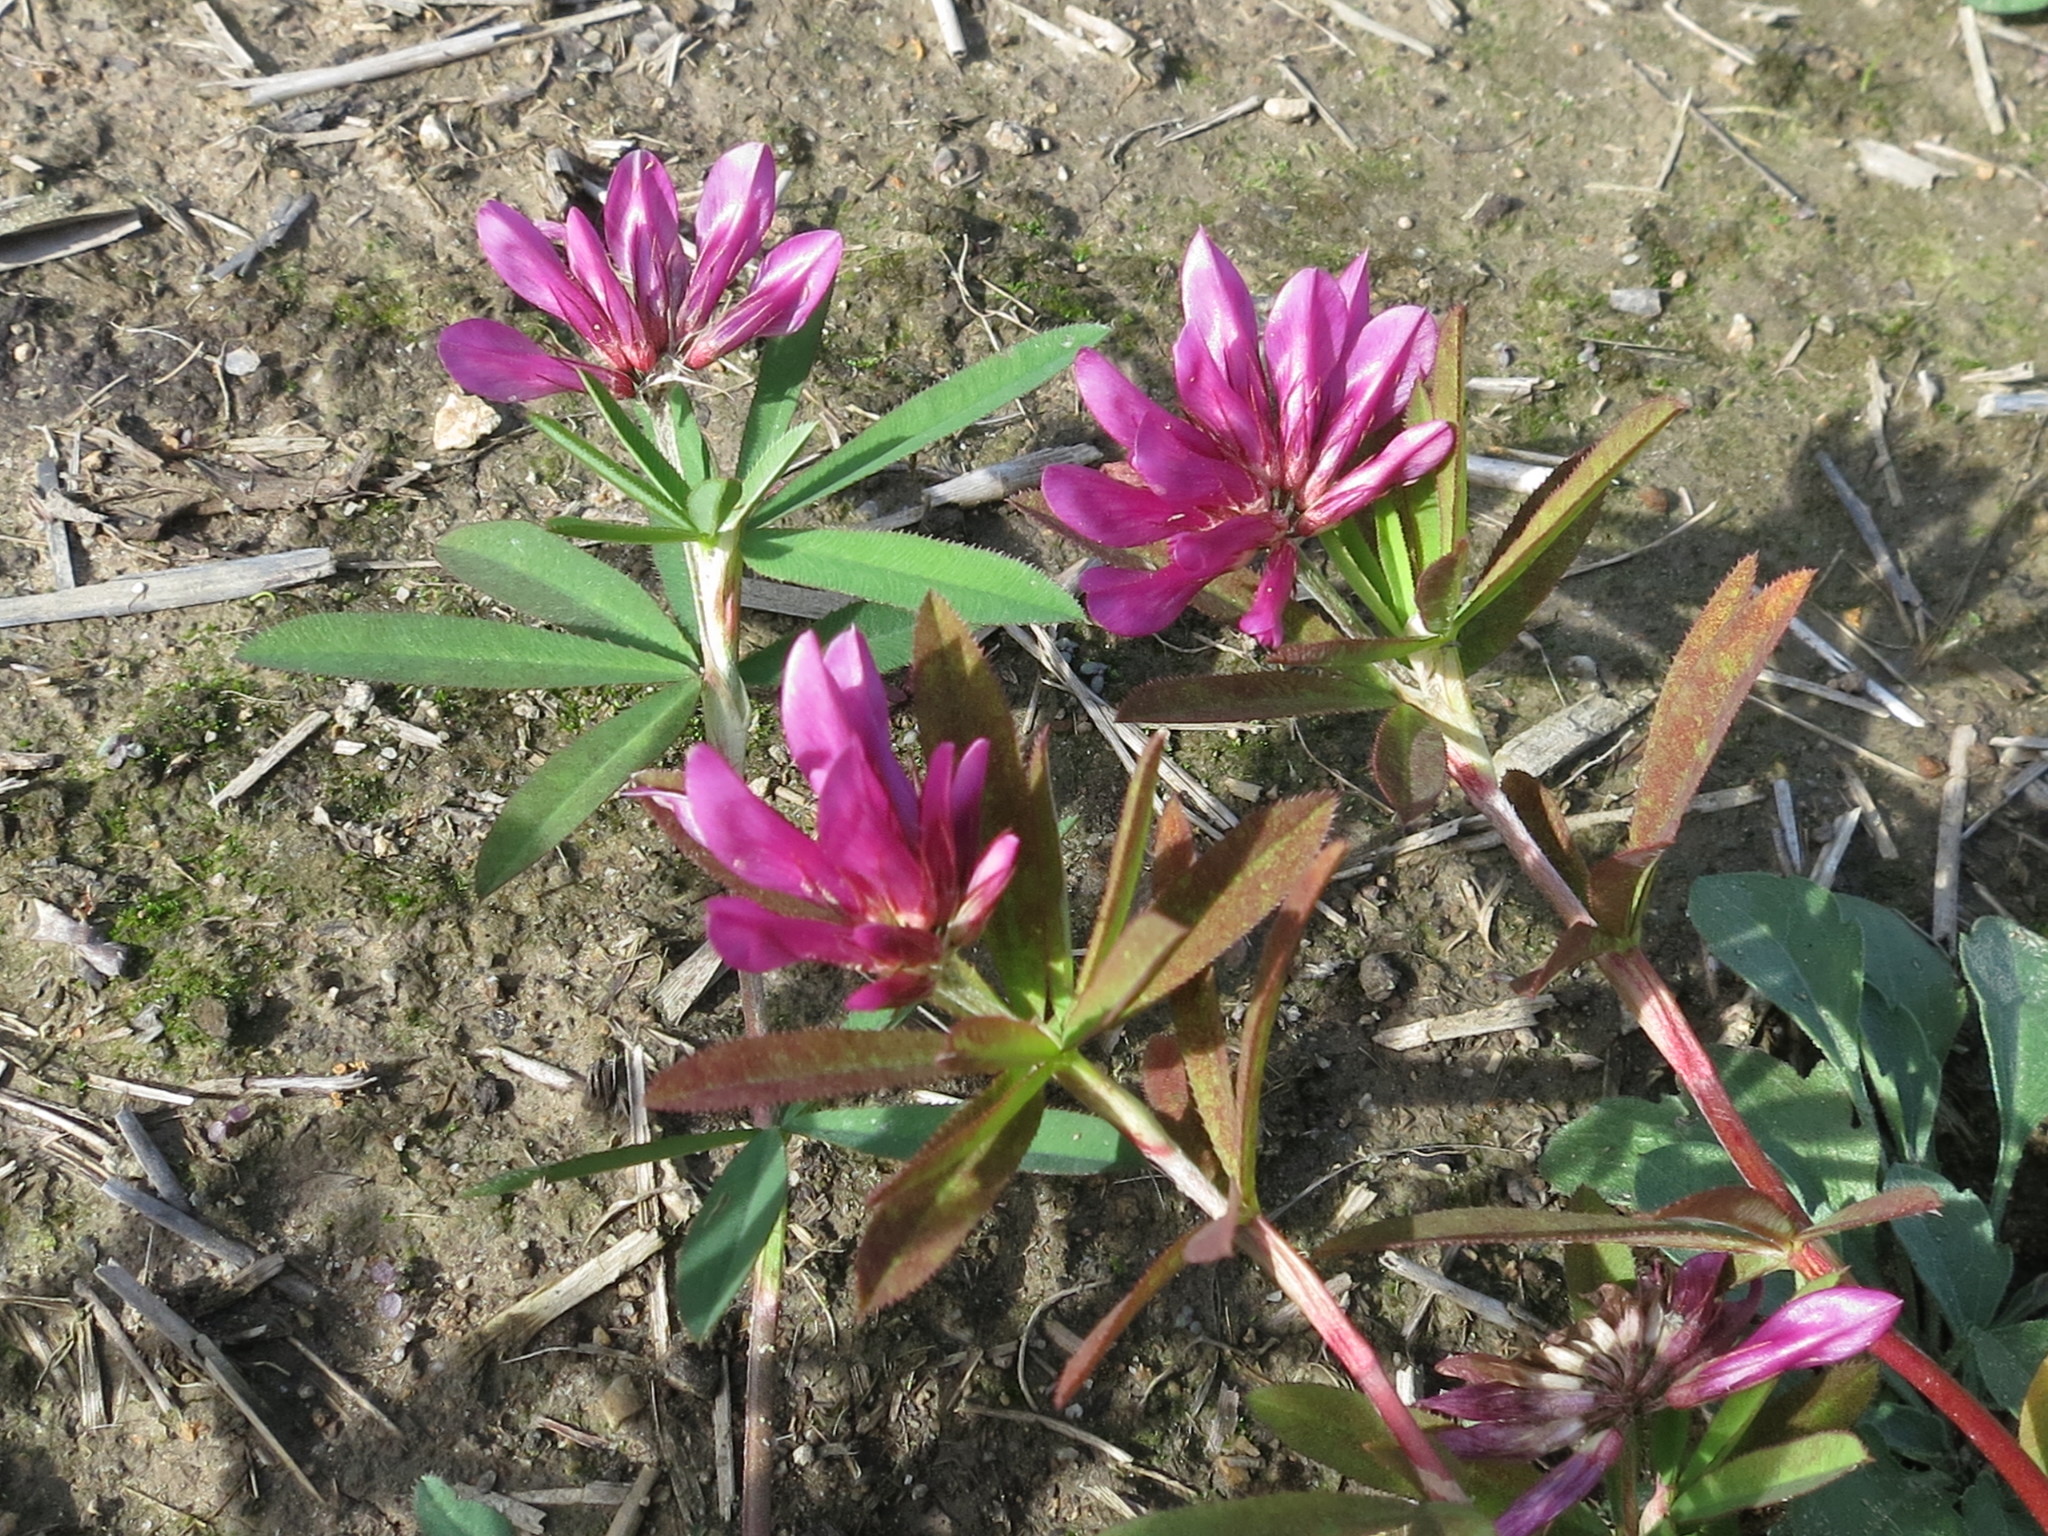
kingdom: Plantae
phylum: Tracheophyta
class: Magnoliopsida
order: Fabales
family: Fabaceae
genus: Trifolium
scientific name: Trifolium lupinaster
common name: Lupine clover
